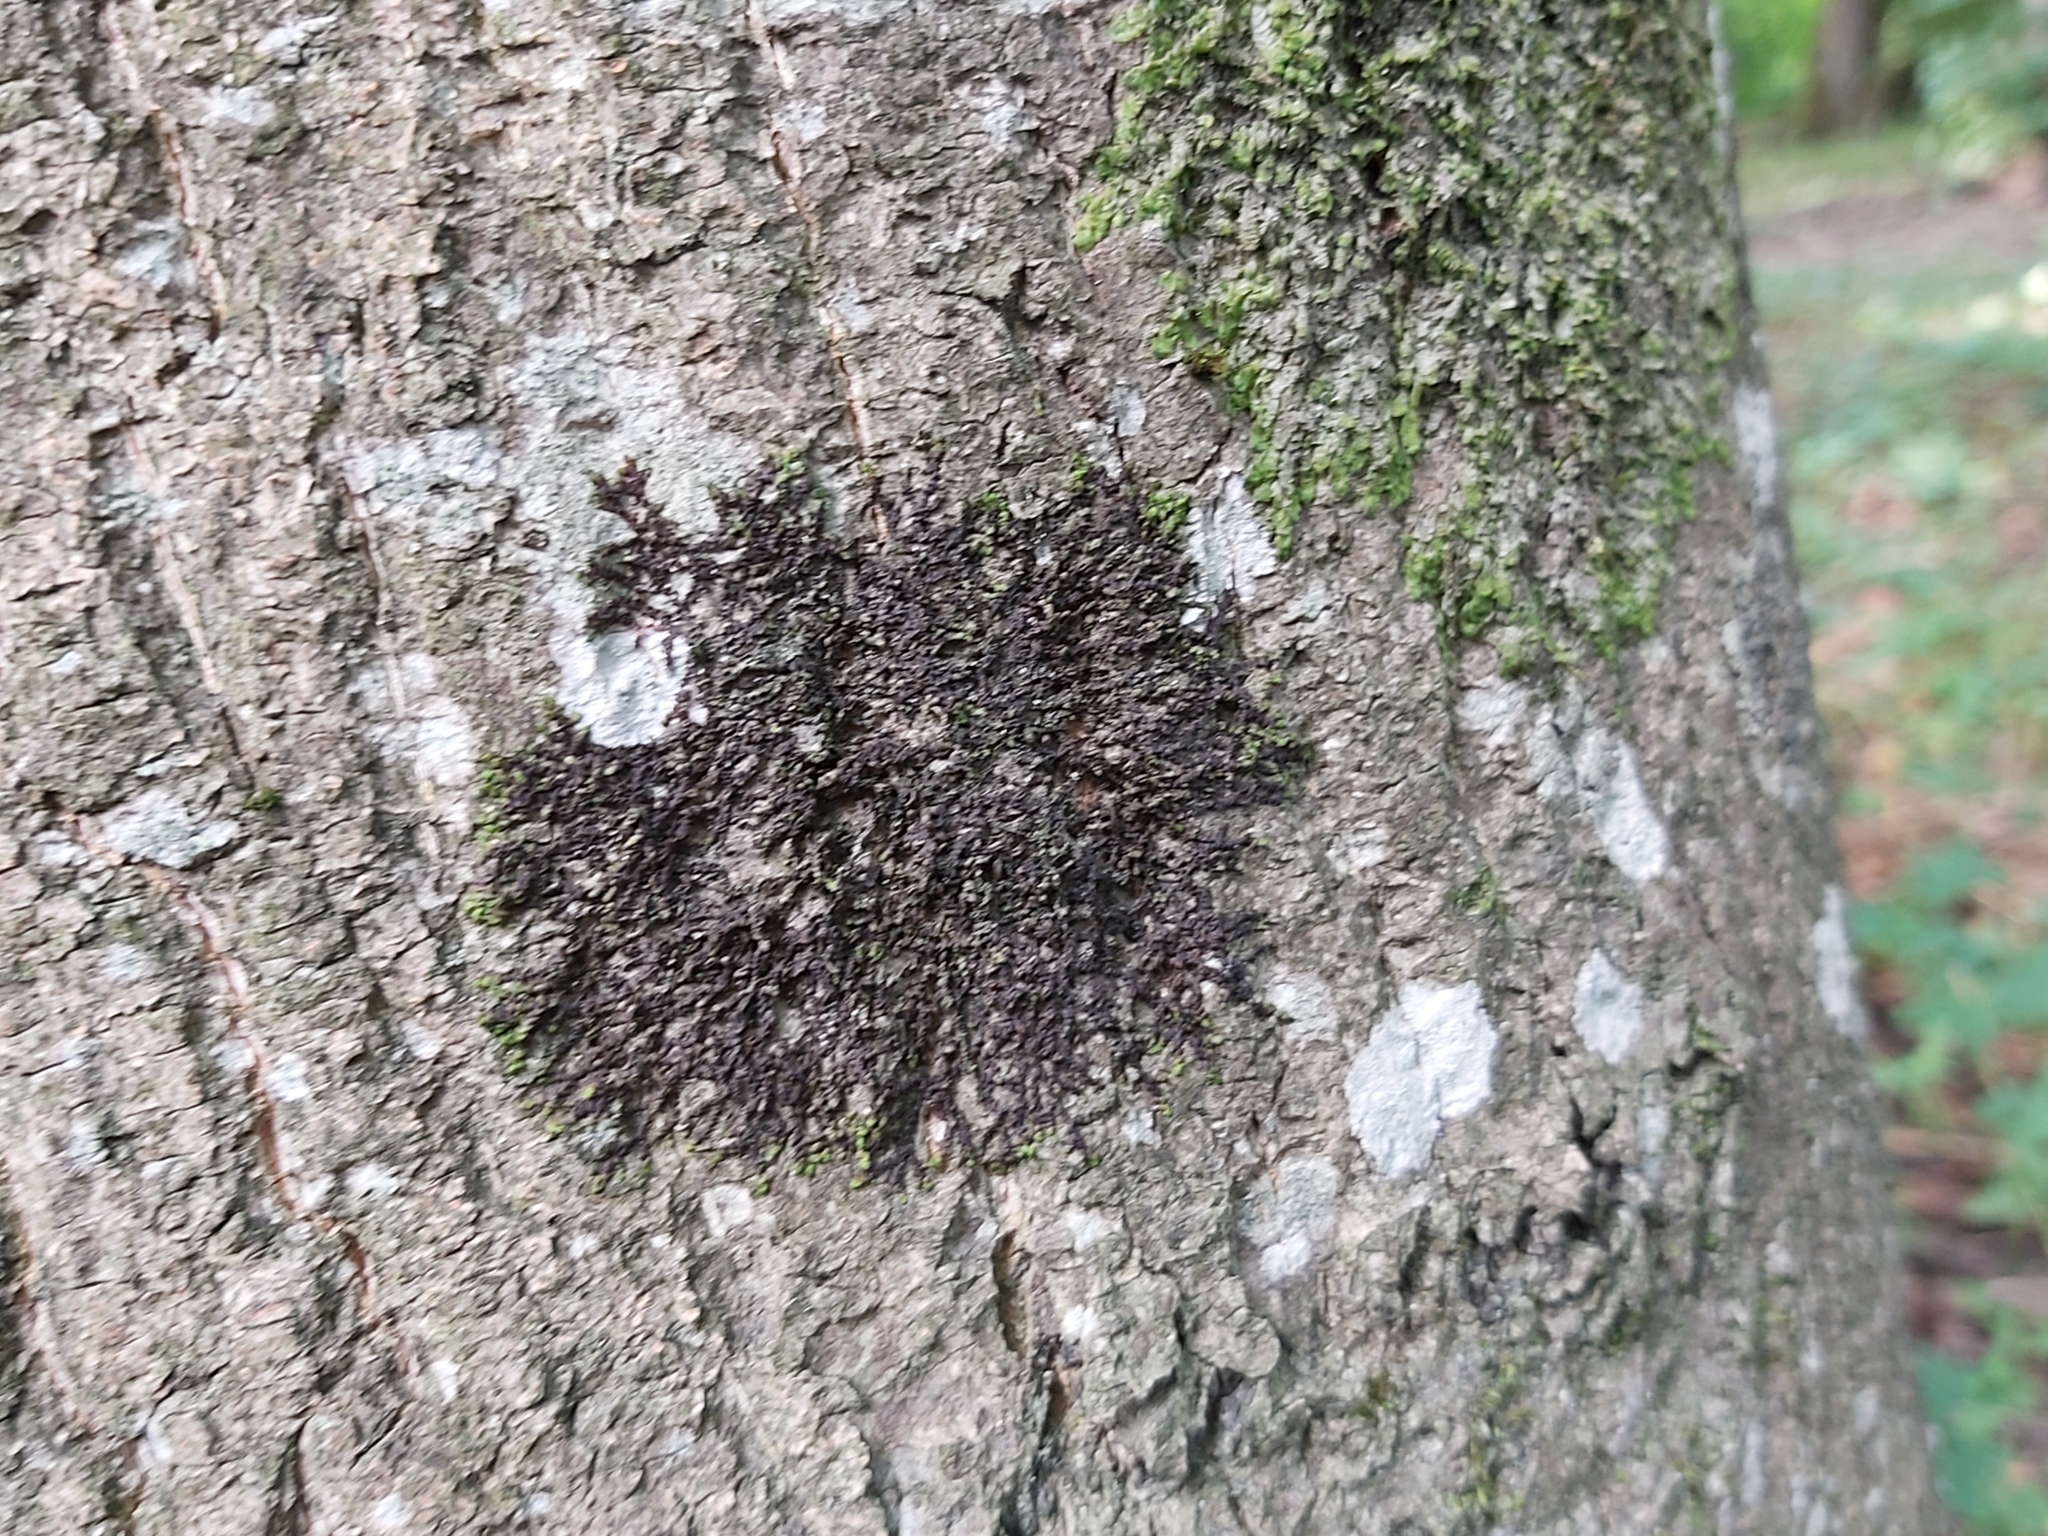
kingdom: Plantae
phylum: Marchantiophyta
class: Jungermanniopsida
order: Porellales
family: Frullaniaceae
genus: Frullania
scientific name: Frullania dilatata
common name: Dilated scalewort
